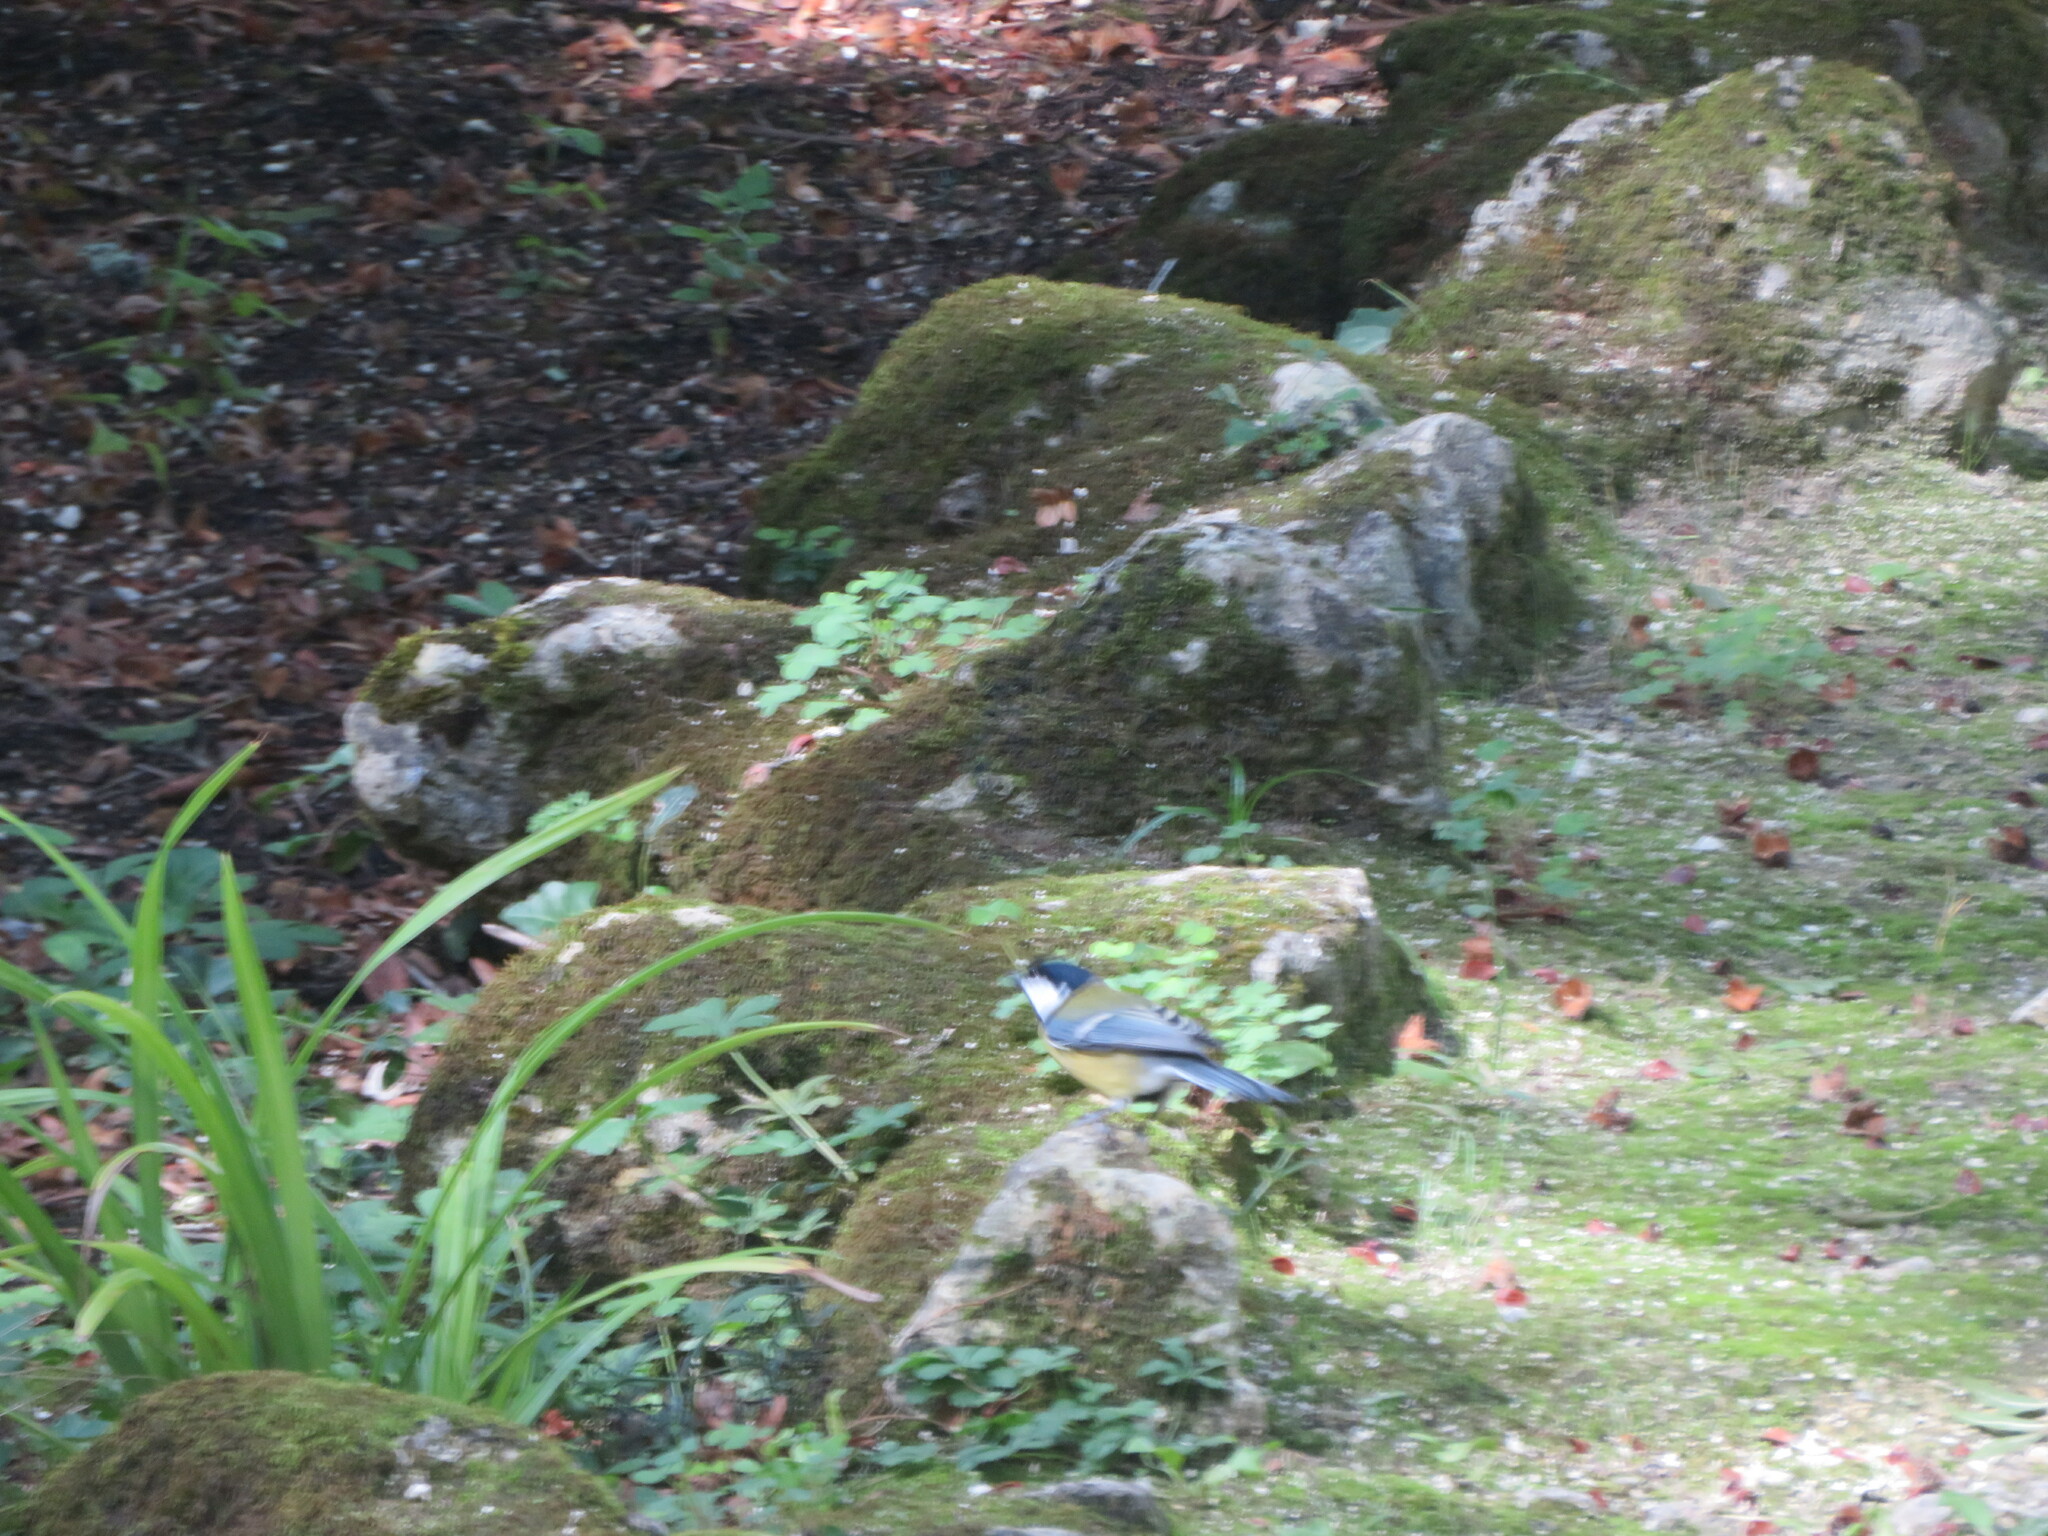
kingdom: Animalia
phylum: Chordata
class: Aves
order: Passeriformes
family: Paridae
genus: Parus
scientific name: Parus major
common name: Great tit
